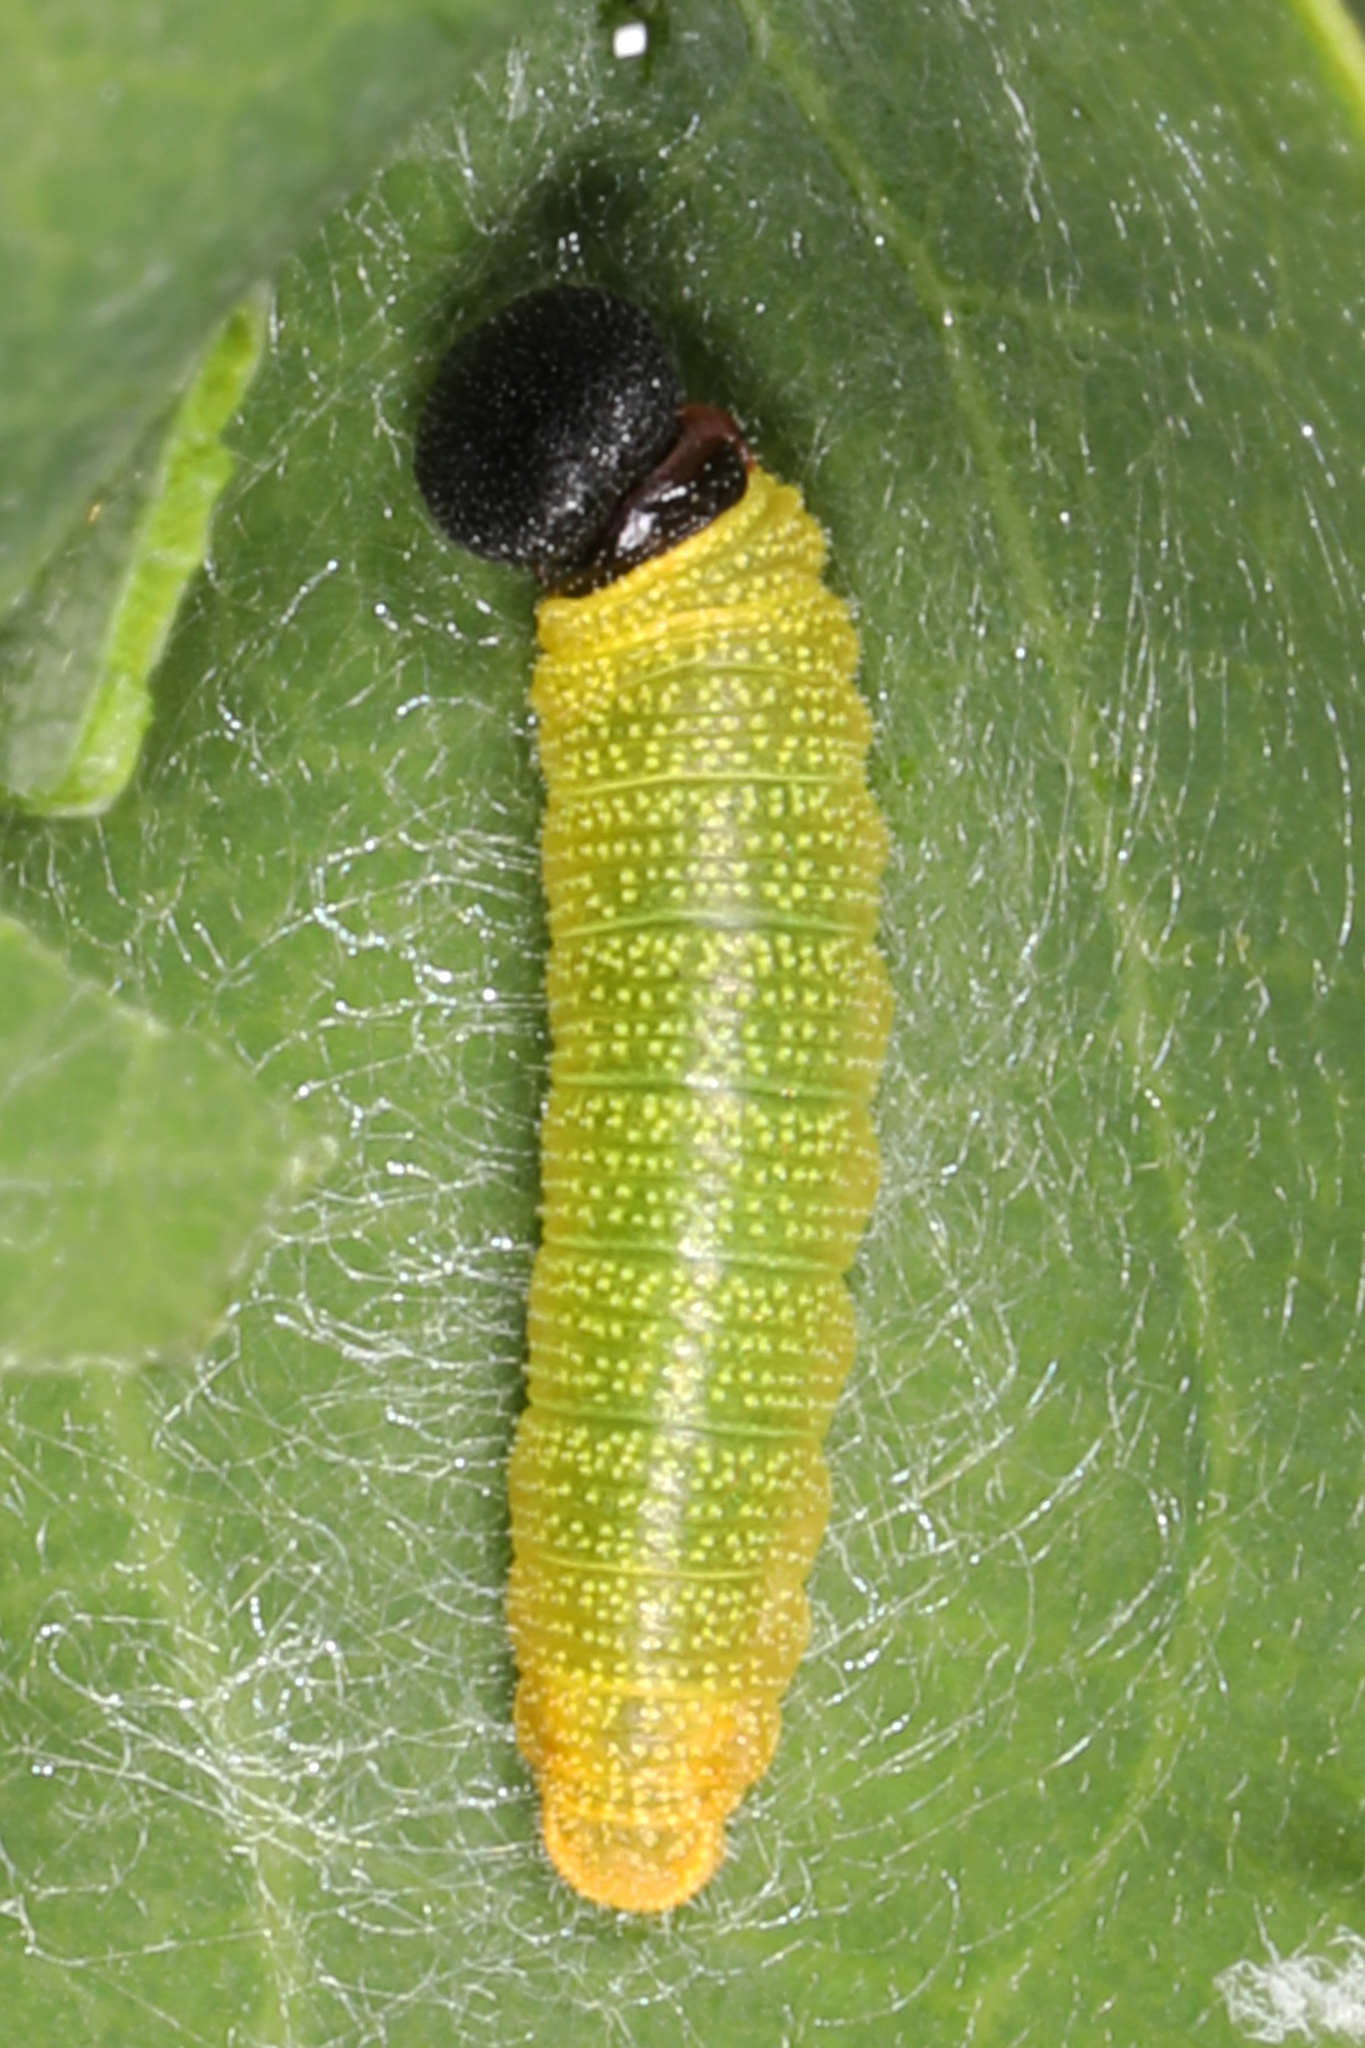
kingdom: Animalia
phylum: Arthropoda
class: Insecta
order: Lepidoptera
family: Hesperiidae
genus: Epargyreus
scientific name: Epargyreus clarus
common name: Silver-spotted skipper
